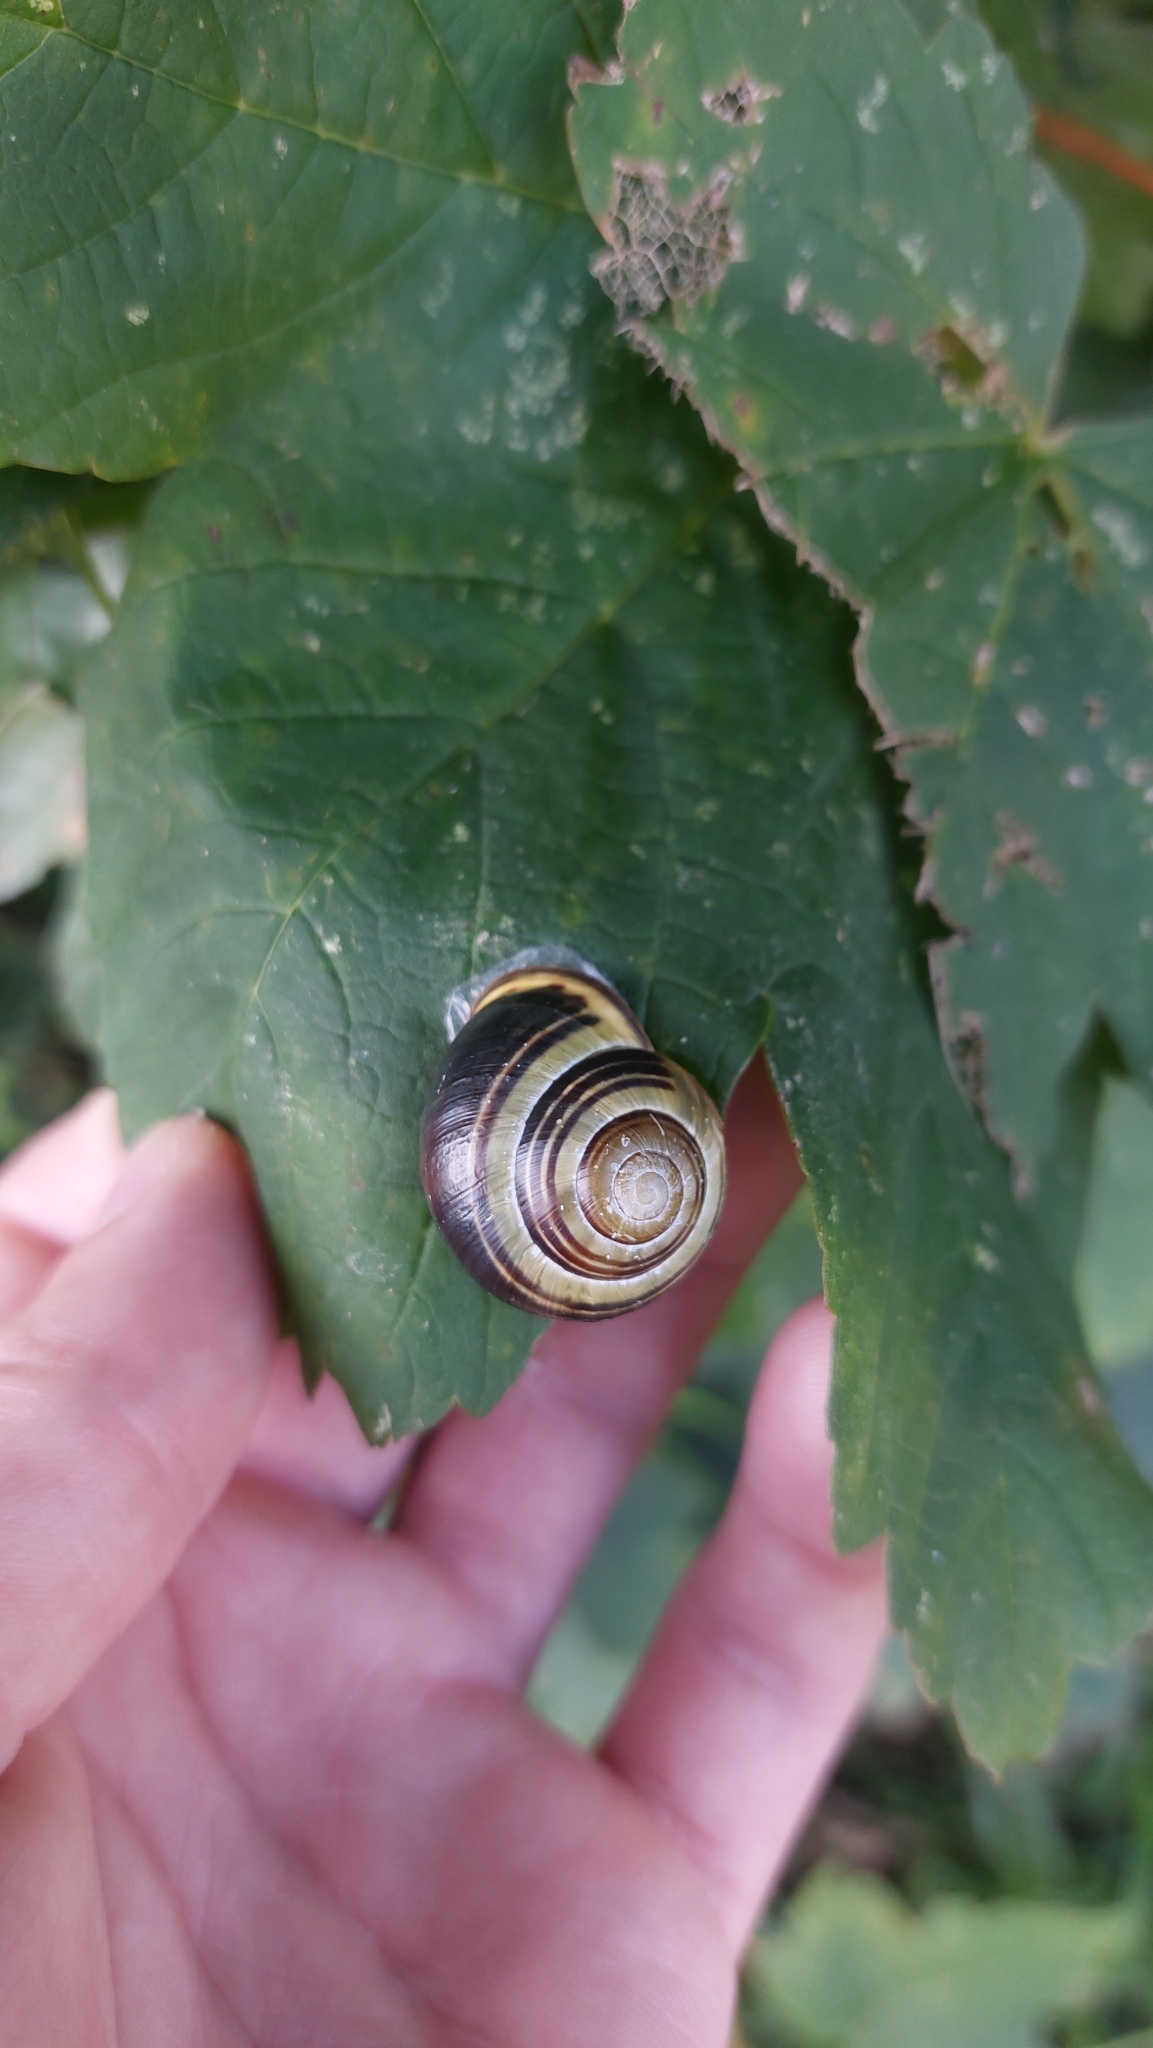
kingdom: Animalia
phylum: Mollusca
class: Gastropoda
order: Stylommatophora
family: Helicidae
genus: Cepaea
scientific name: Cepaea nemoralis
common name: Grovesnail
